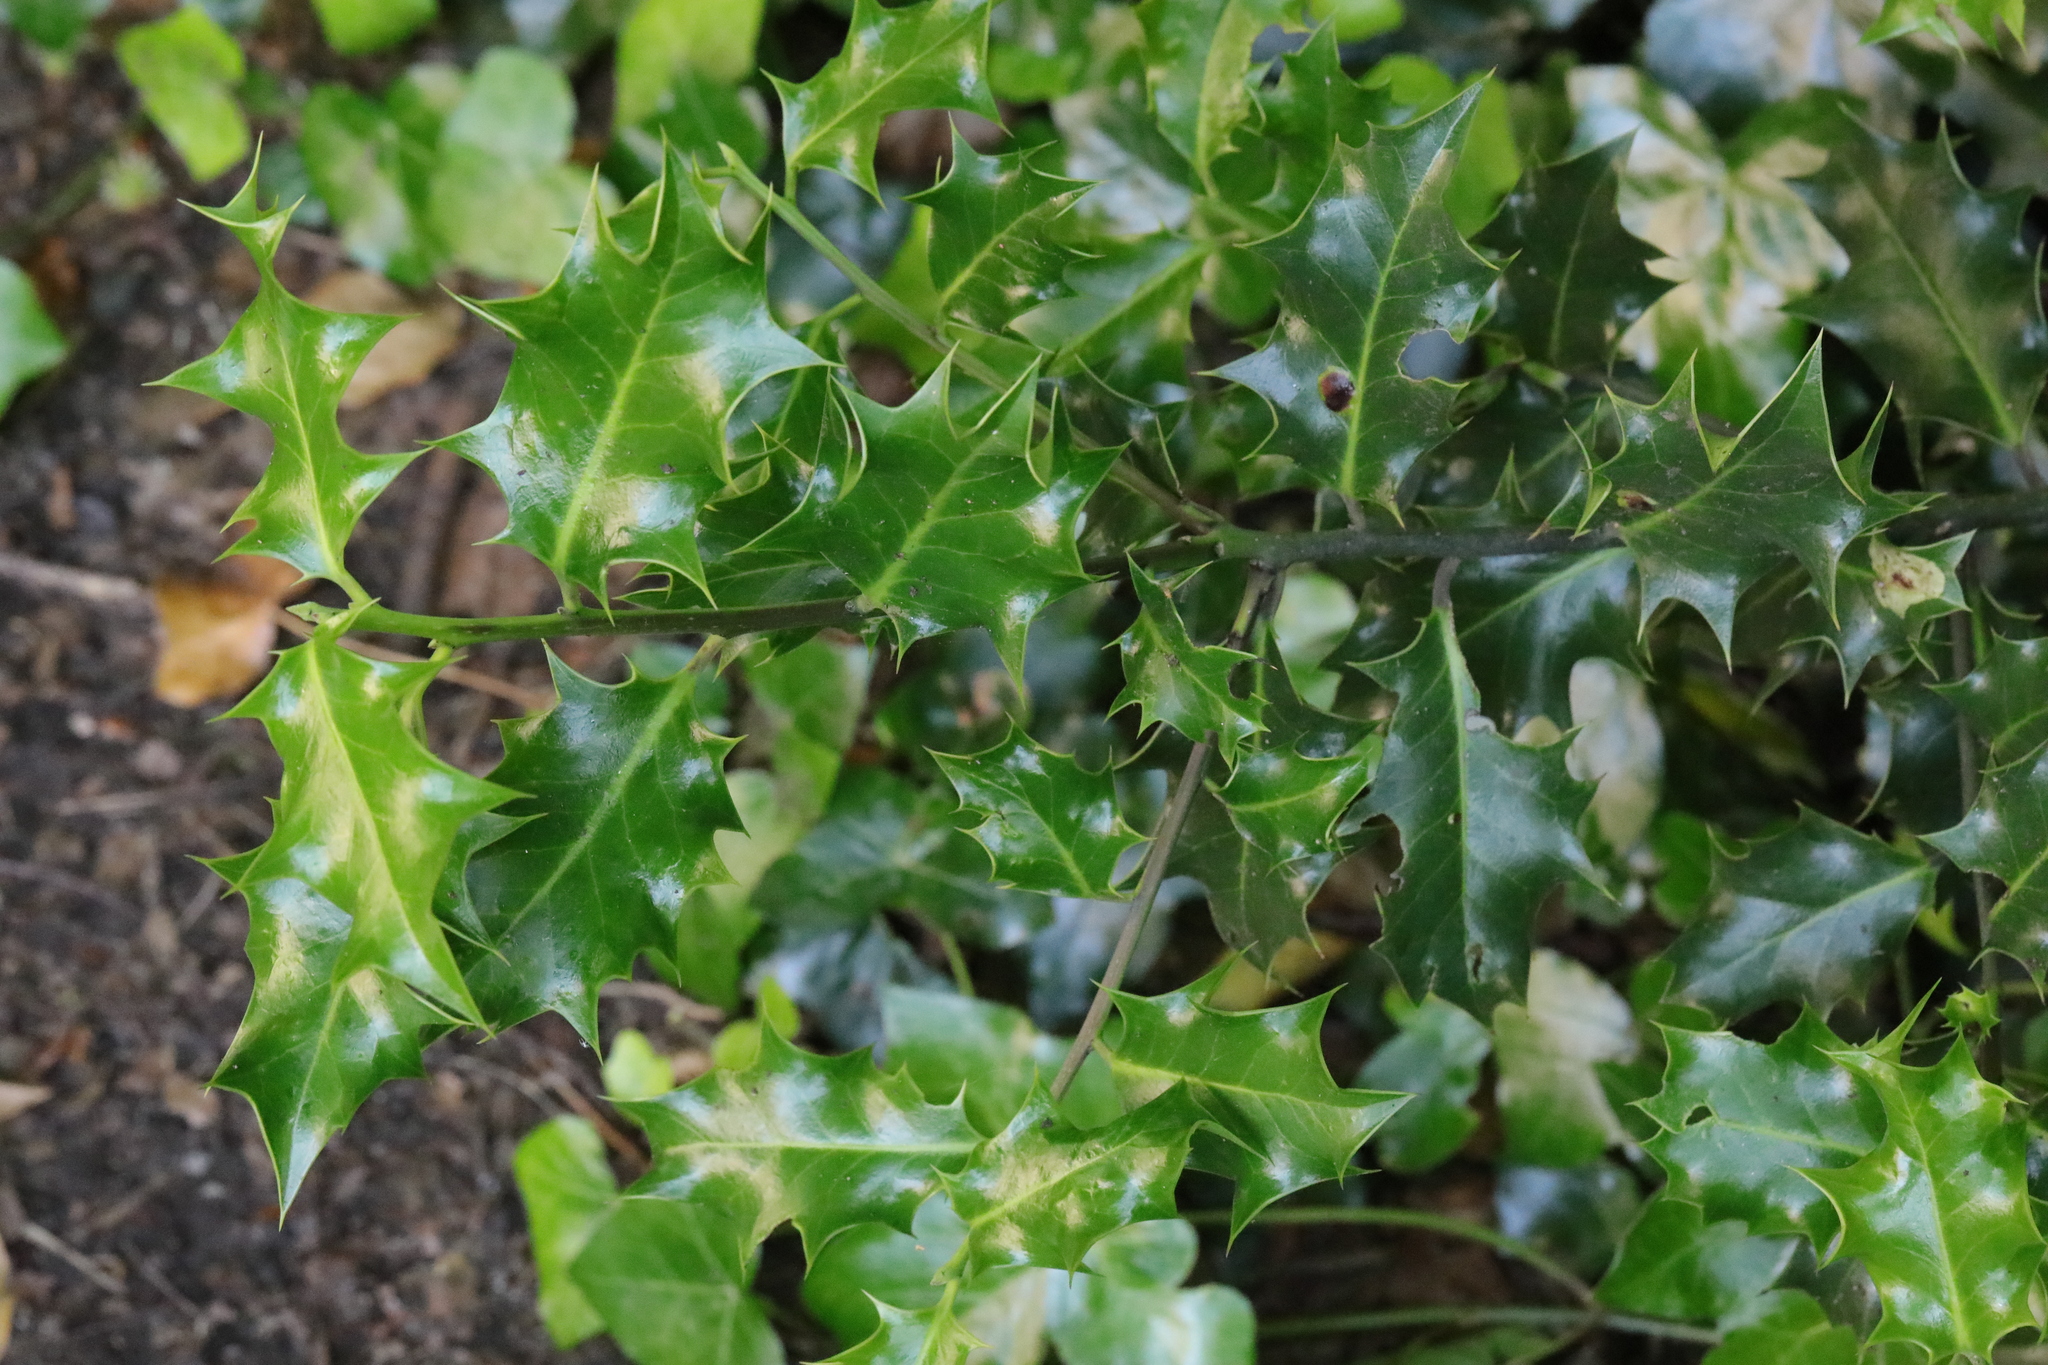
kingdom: Plantae
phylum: Tracheophyta
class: Magnoliopsida
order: Aquifoliales
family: Aquifoliaceae
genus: Ilex
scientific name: Ilex aquifolium
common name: English holly
